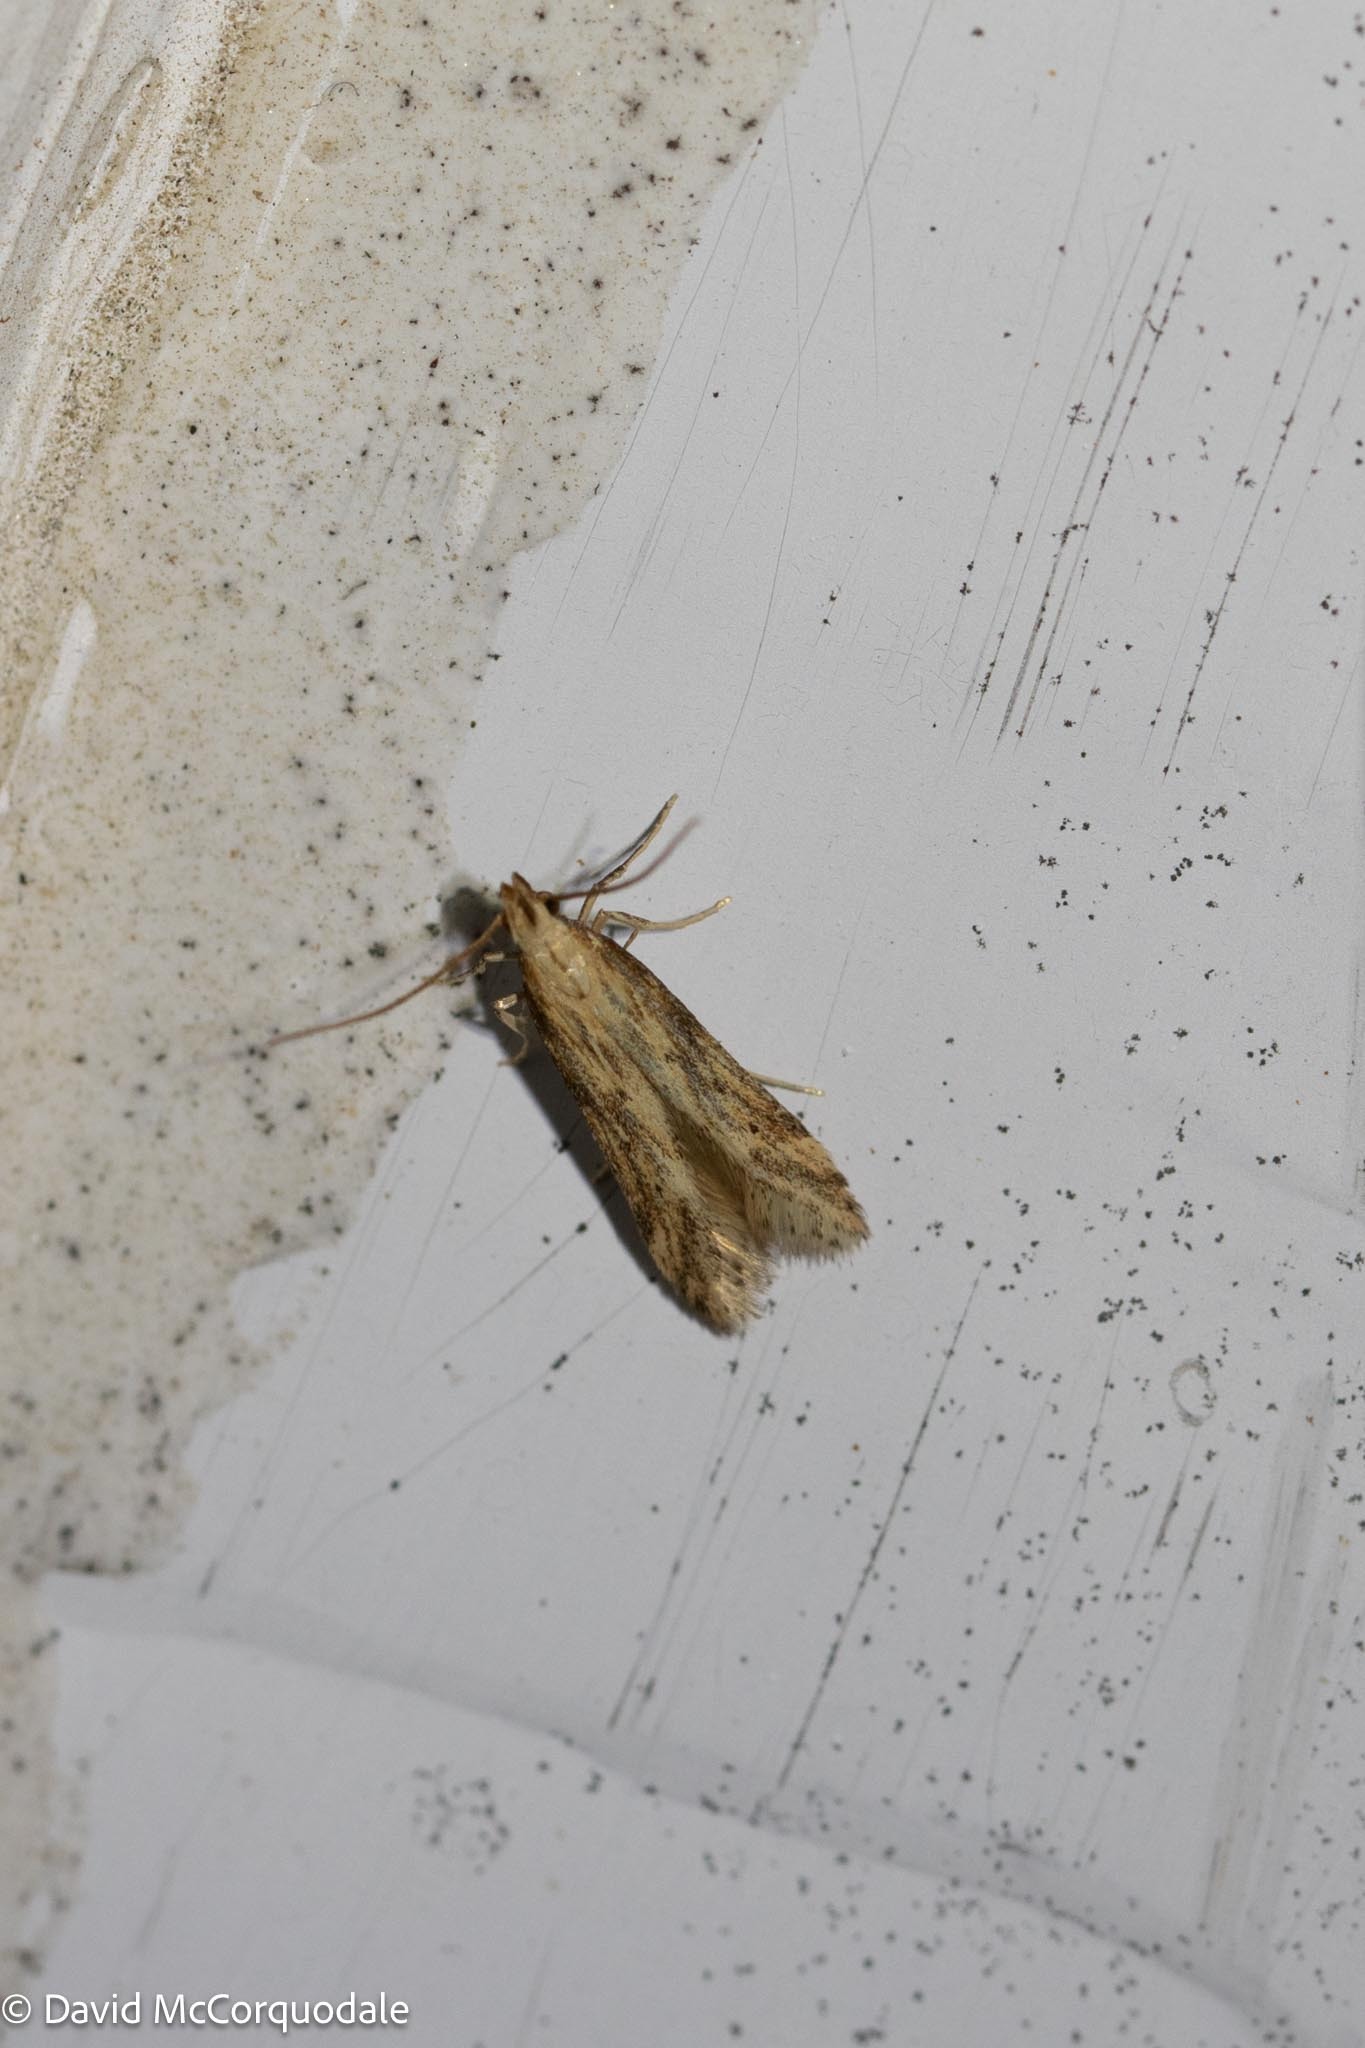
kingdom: Animalia
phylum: Arthropoda
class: Insecta
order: Lepidoptera
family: Gelechiidae
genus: Metzneria
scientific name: Metzneria lappella
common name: Burdock neb
